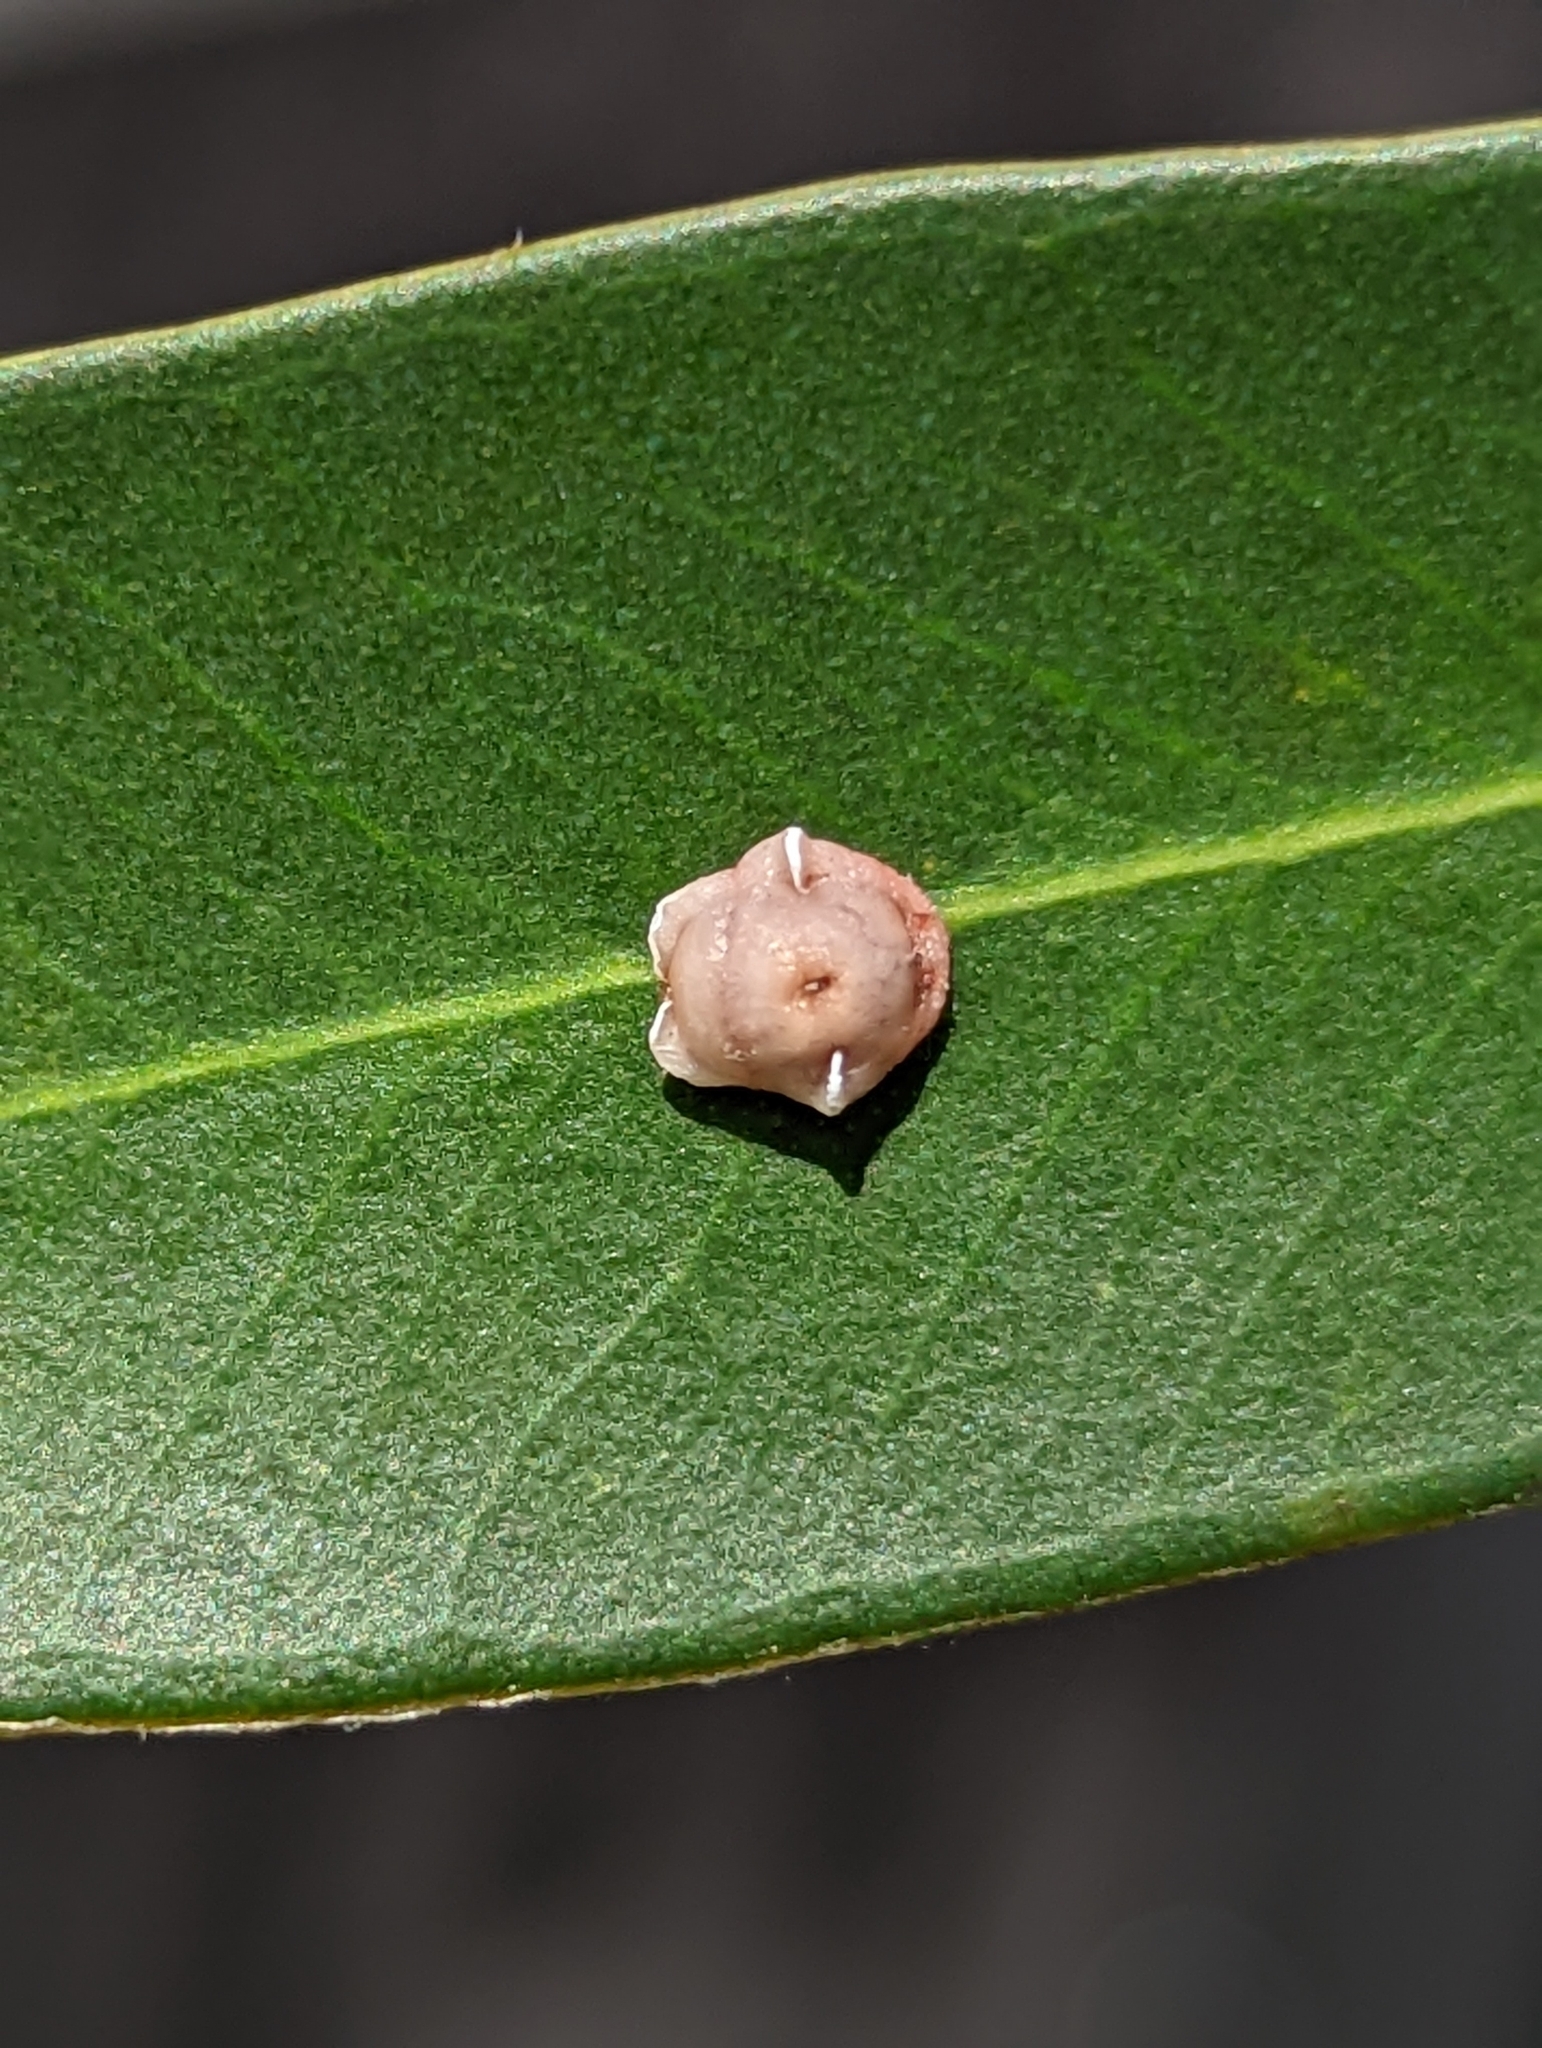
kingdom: Animalia
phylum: Arthropoda
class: Insecta
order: Hemiptera
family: Coccidae
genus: Ceroplastes
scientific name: Ceroplastes rubens
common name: Pink wax scale
